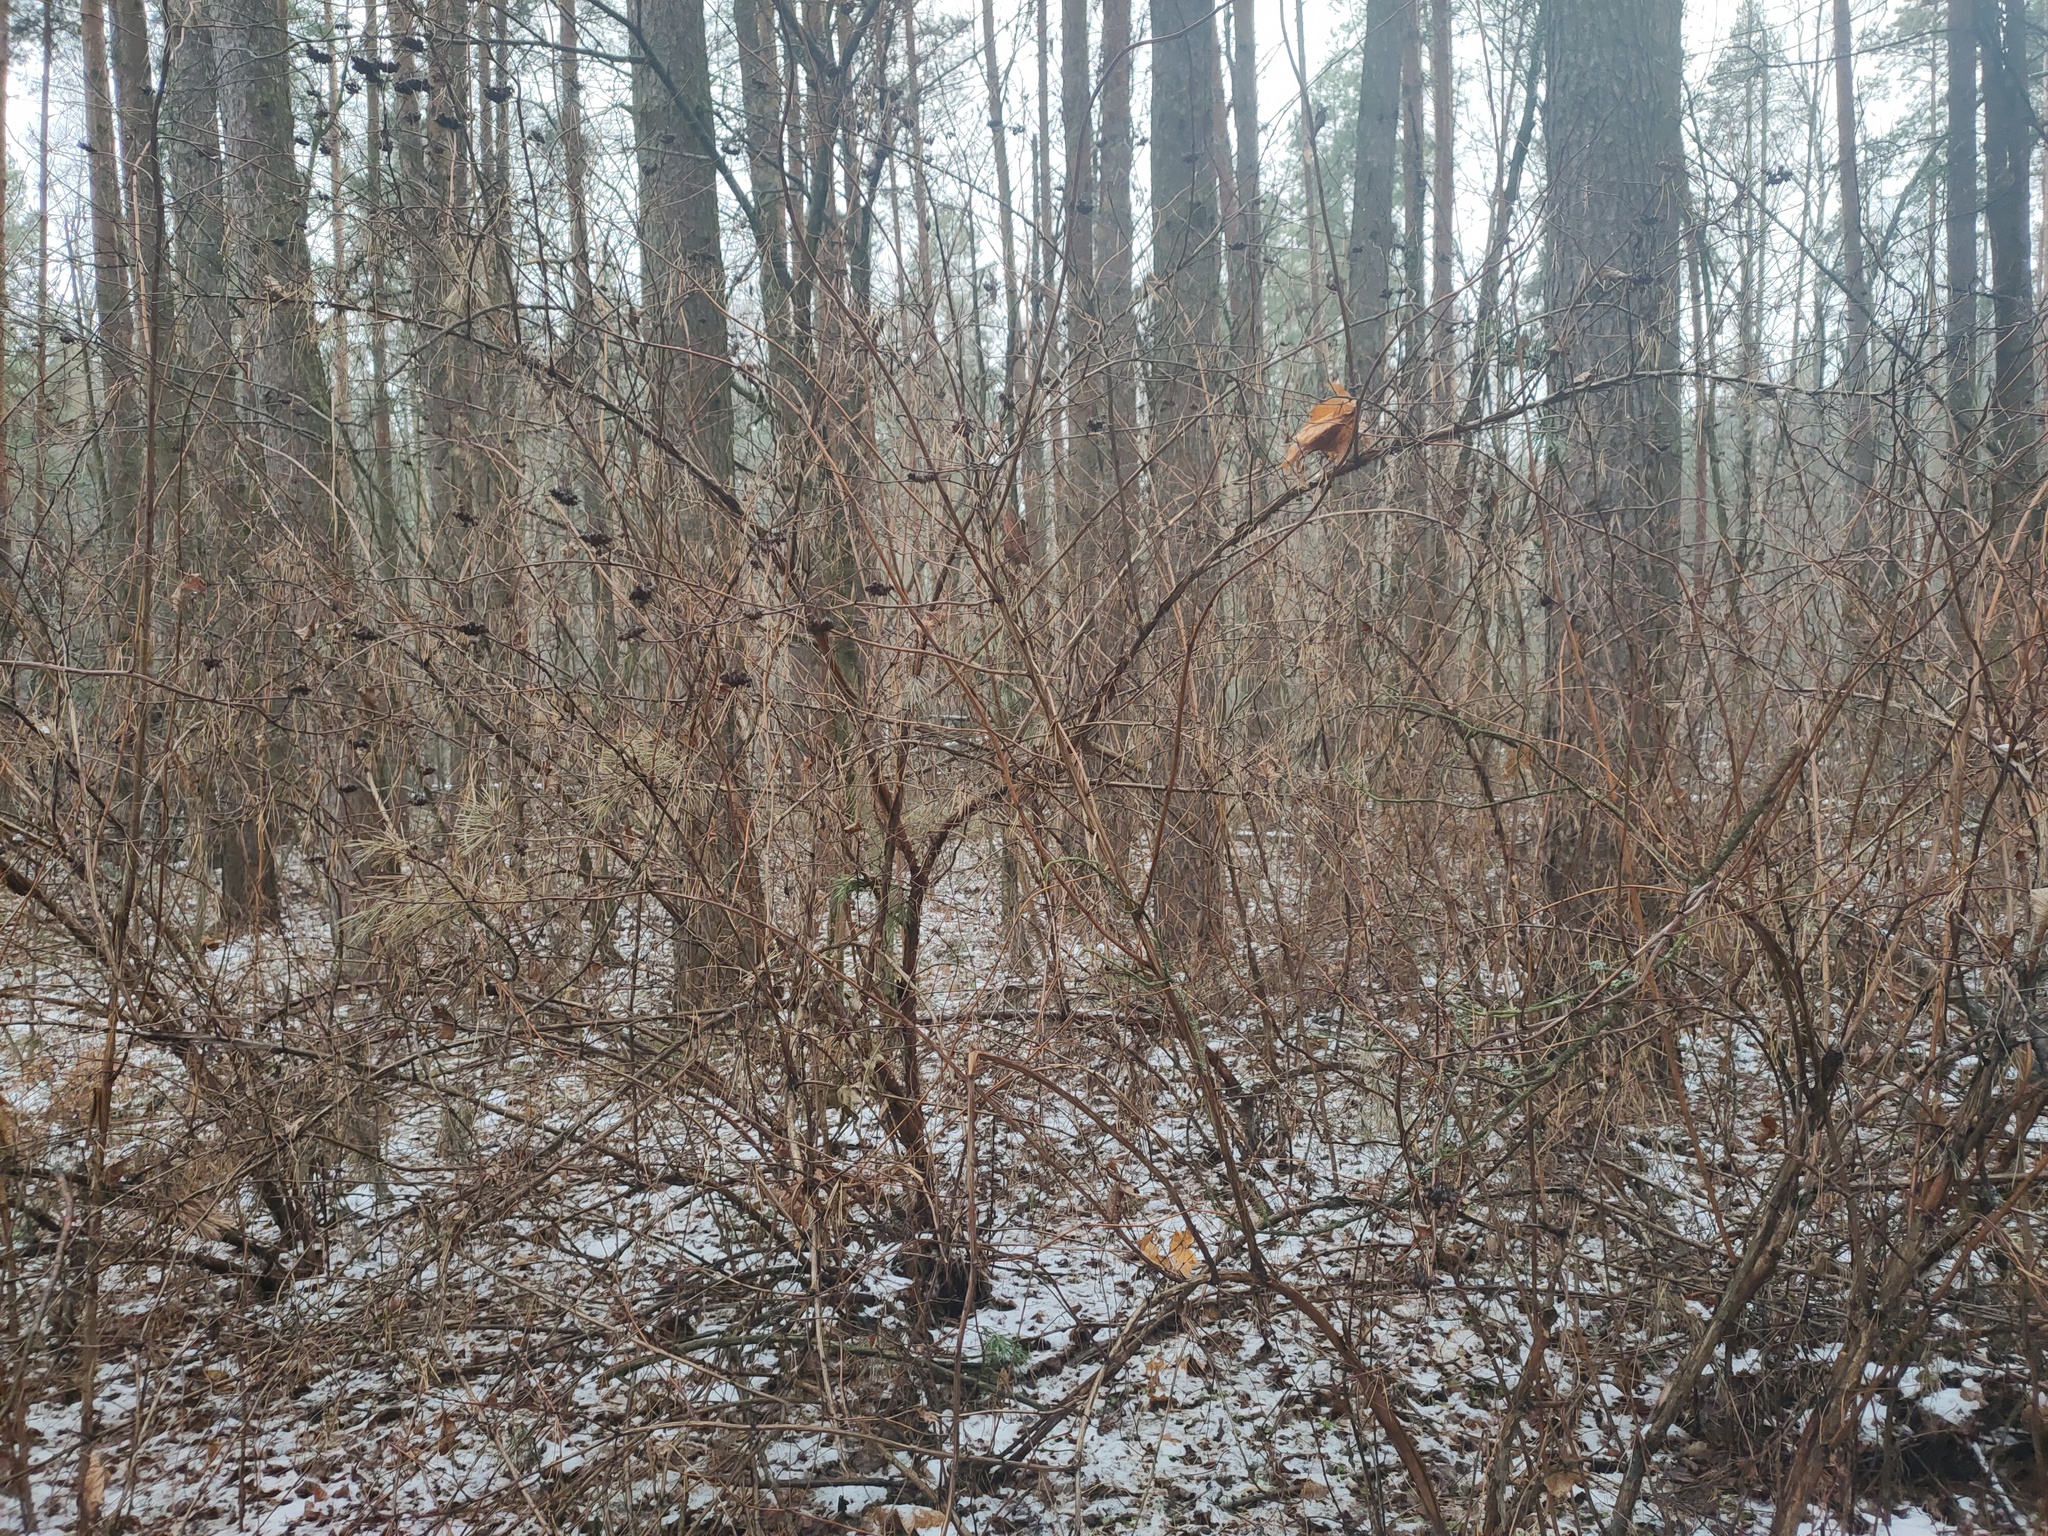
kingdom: Plantae
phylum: Tracheophyta
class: Magnoliopsida
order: Rosales
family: Rosaceae
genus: Physocarpus
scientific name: Physocarpus opulifolius
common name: Ninebark
